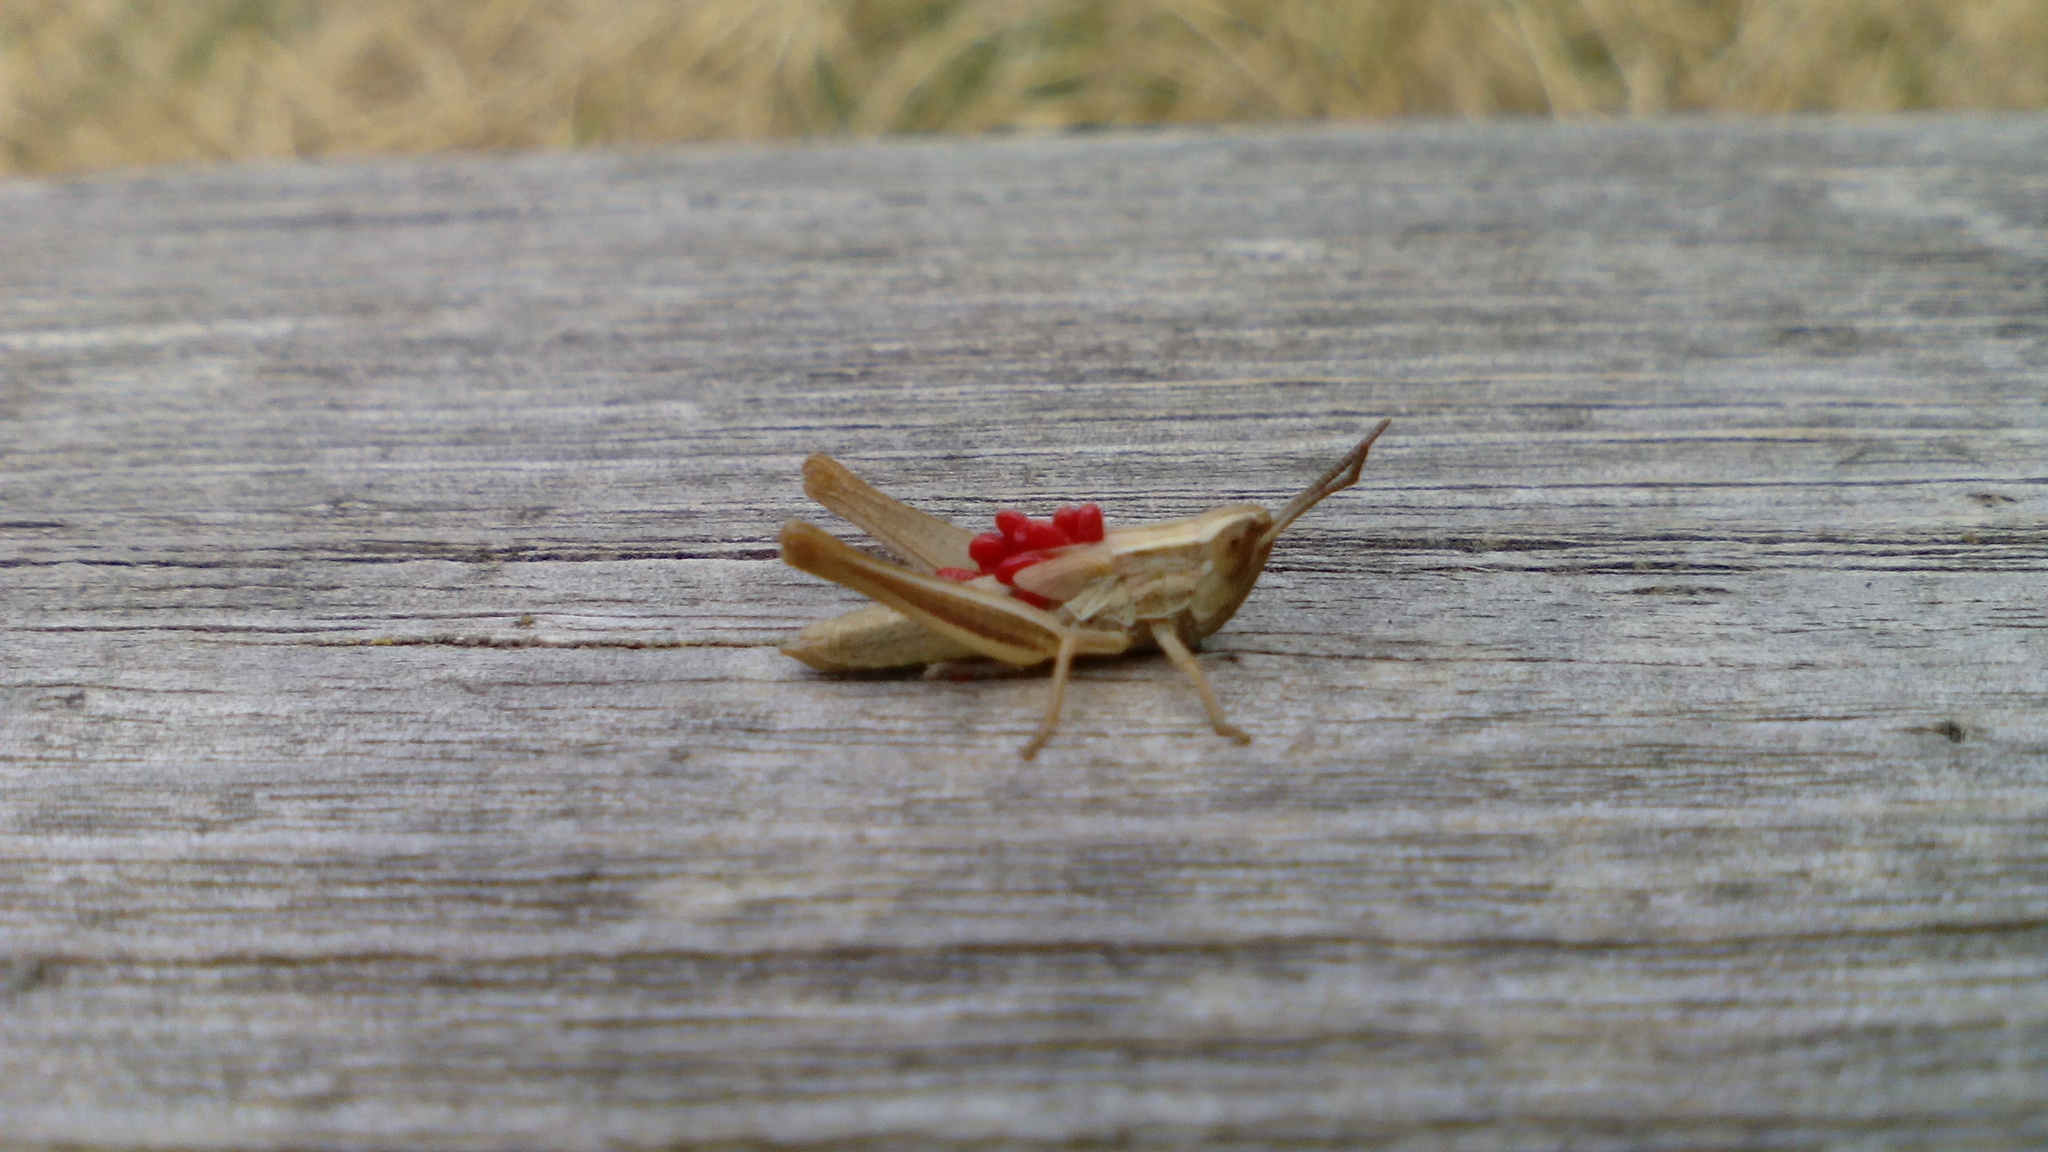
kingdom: Animalia
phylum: Arthropoda
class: Insecta
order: Orthoptera
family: Acrididae
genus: Euchorthippus
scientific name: Euchorthippus declivus
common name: Common straw grasshopper
